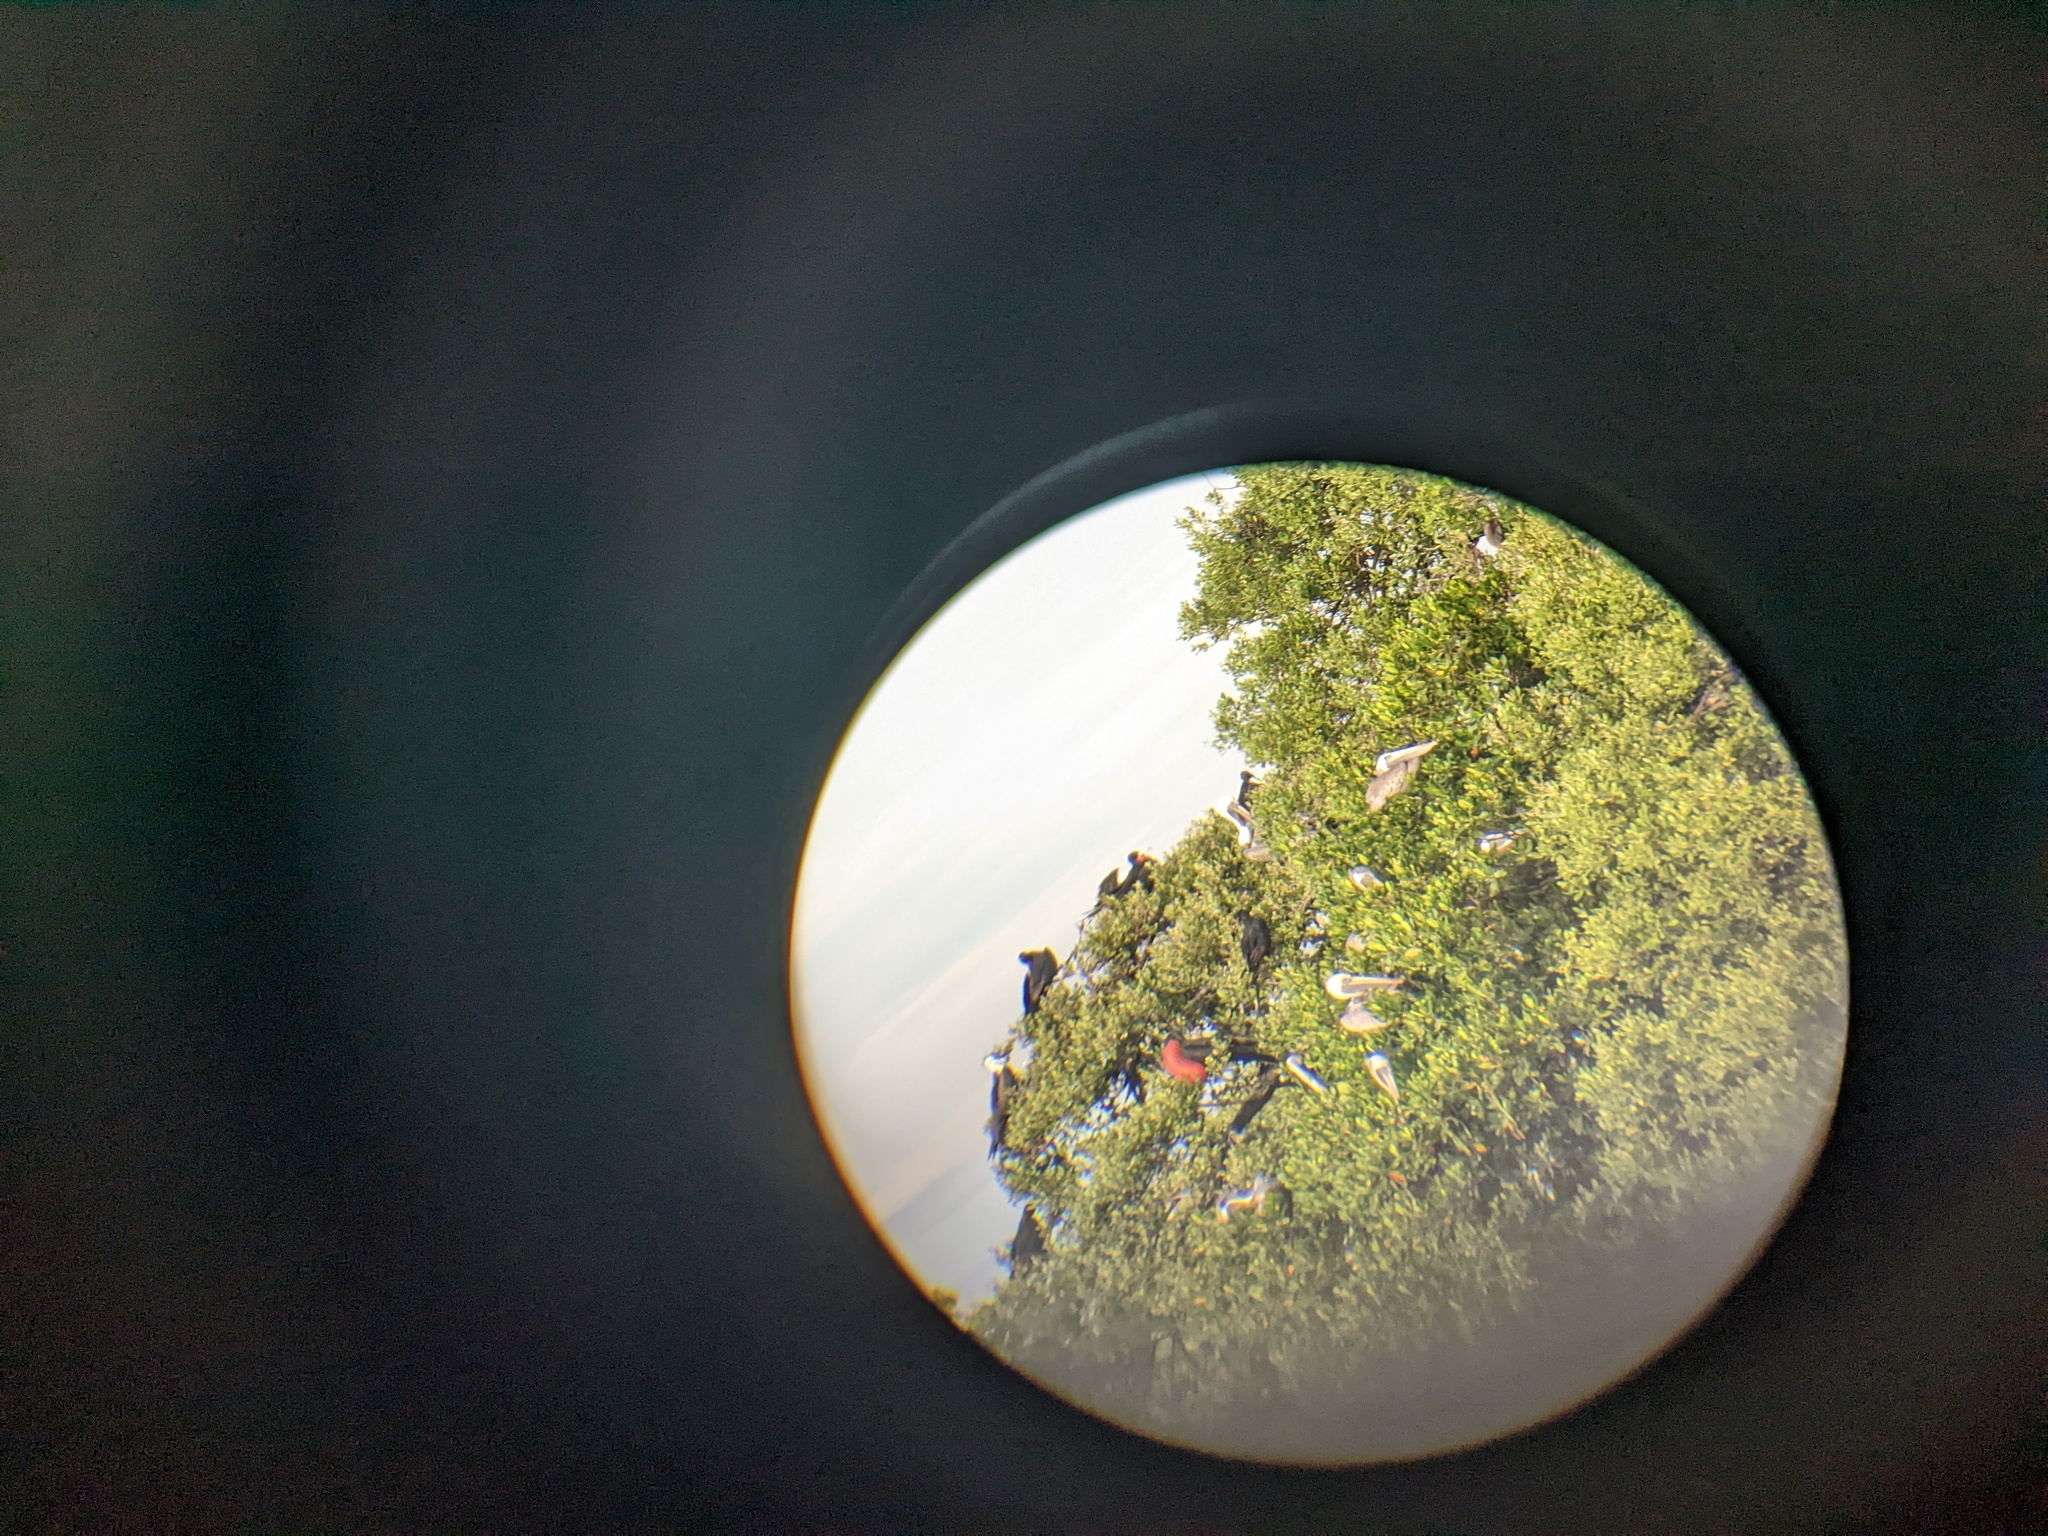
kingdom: Animalia
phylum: Chordata
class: Aves
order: Pelecaniformes
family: Pelecanidae
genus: Pelecanus
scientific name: Pelecanus occidentalis
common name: Brown pelican
